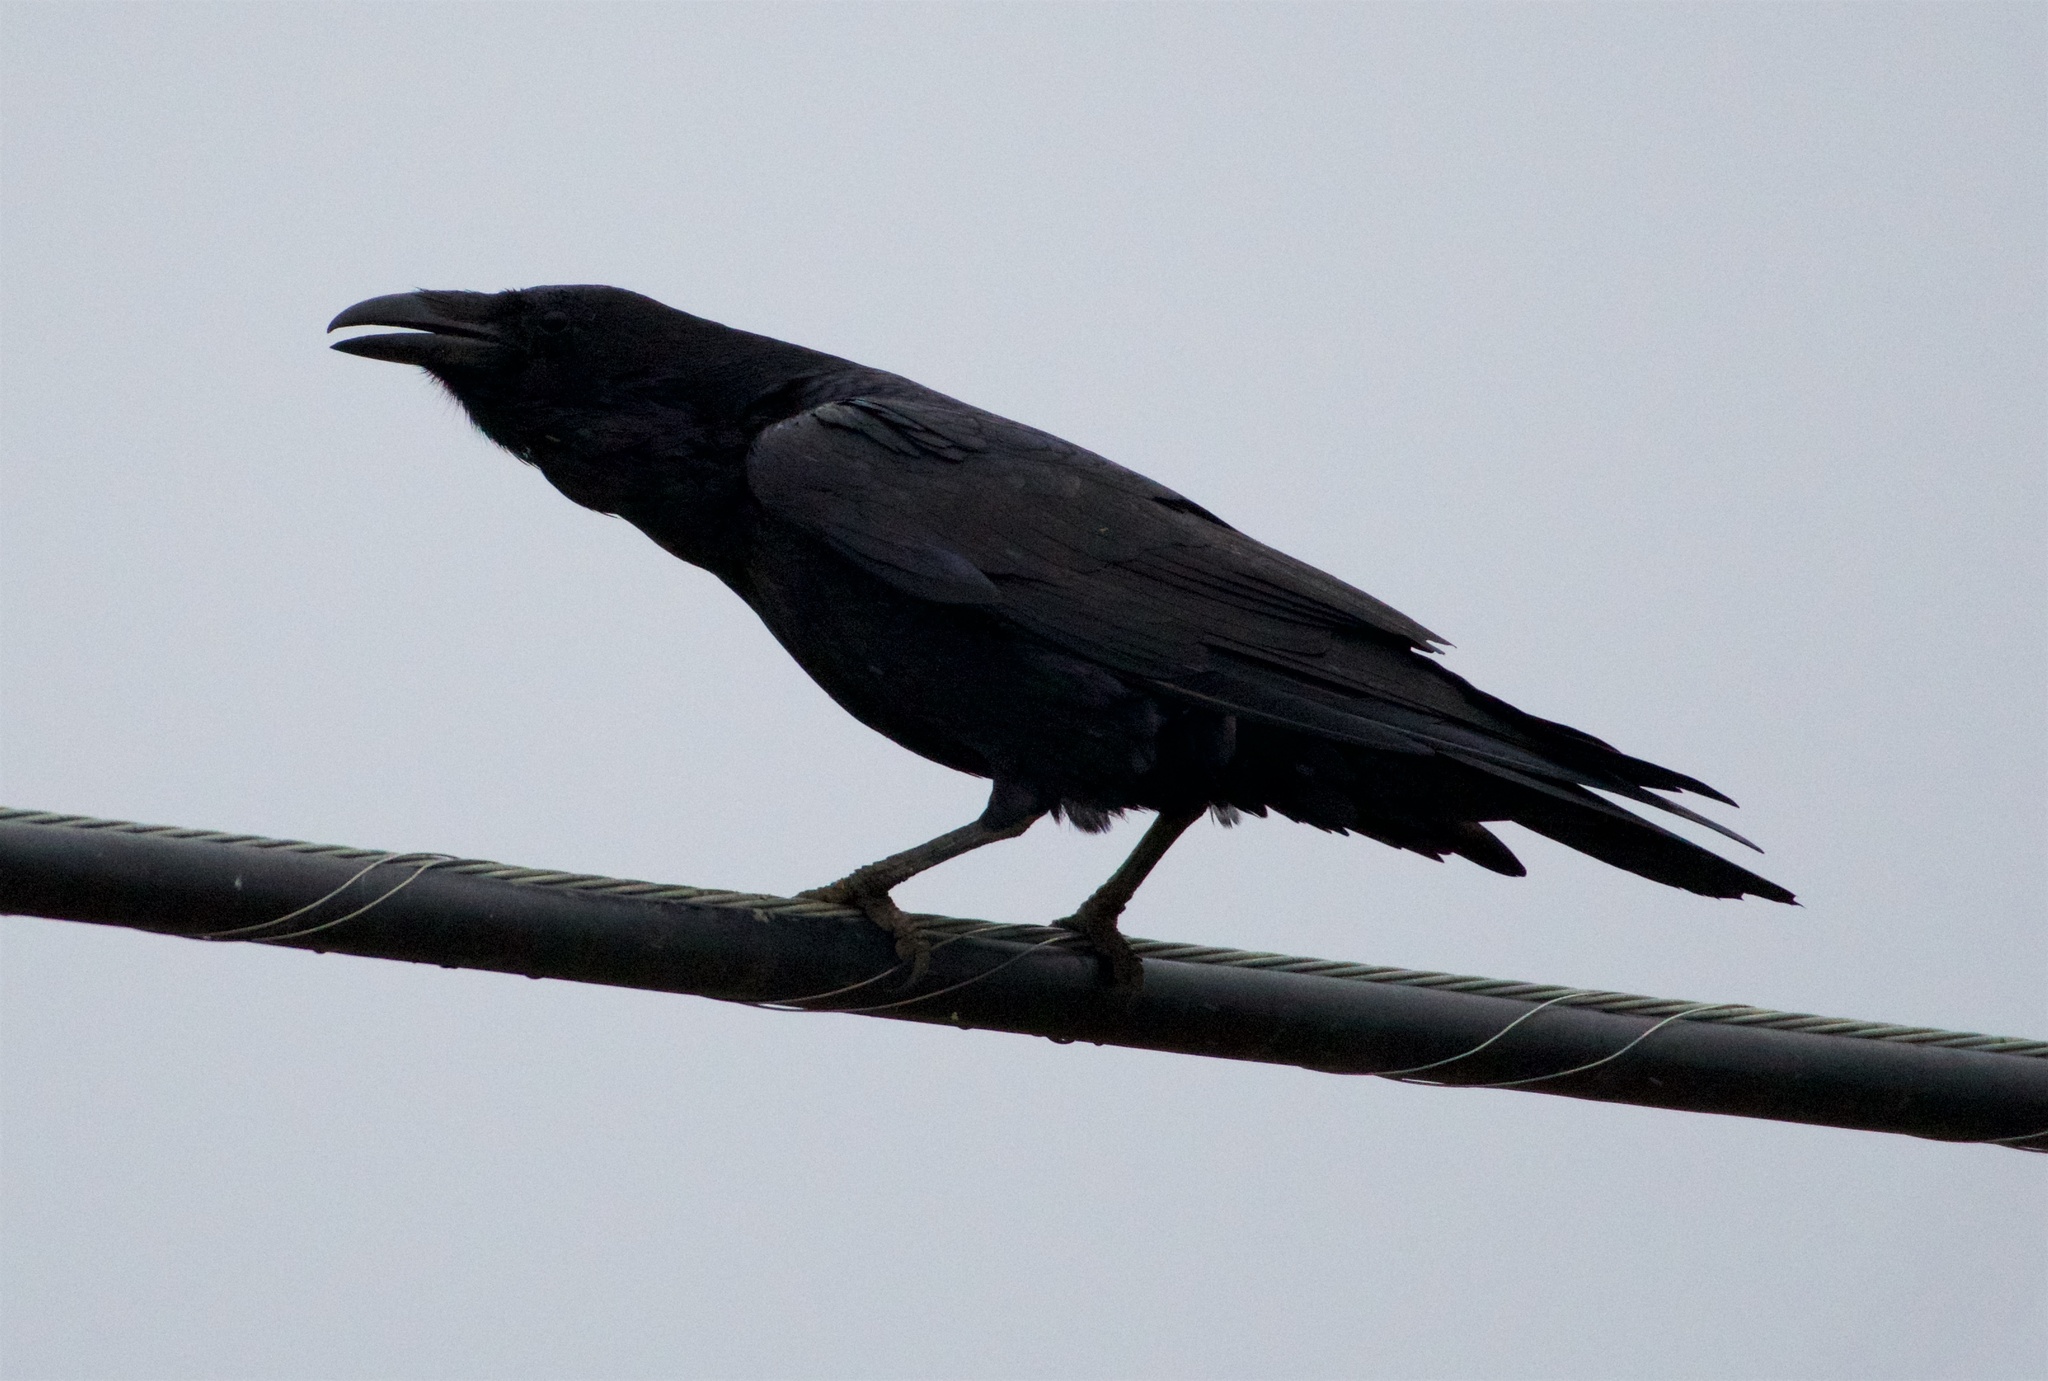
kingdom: Animalia
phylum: Chordata
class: Aves
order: Passeriformes
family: Corvidae
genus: Corvus
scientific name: Corvus corax
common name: Common raven
